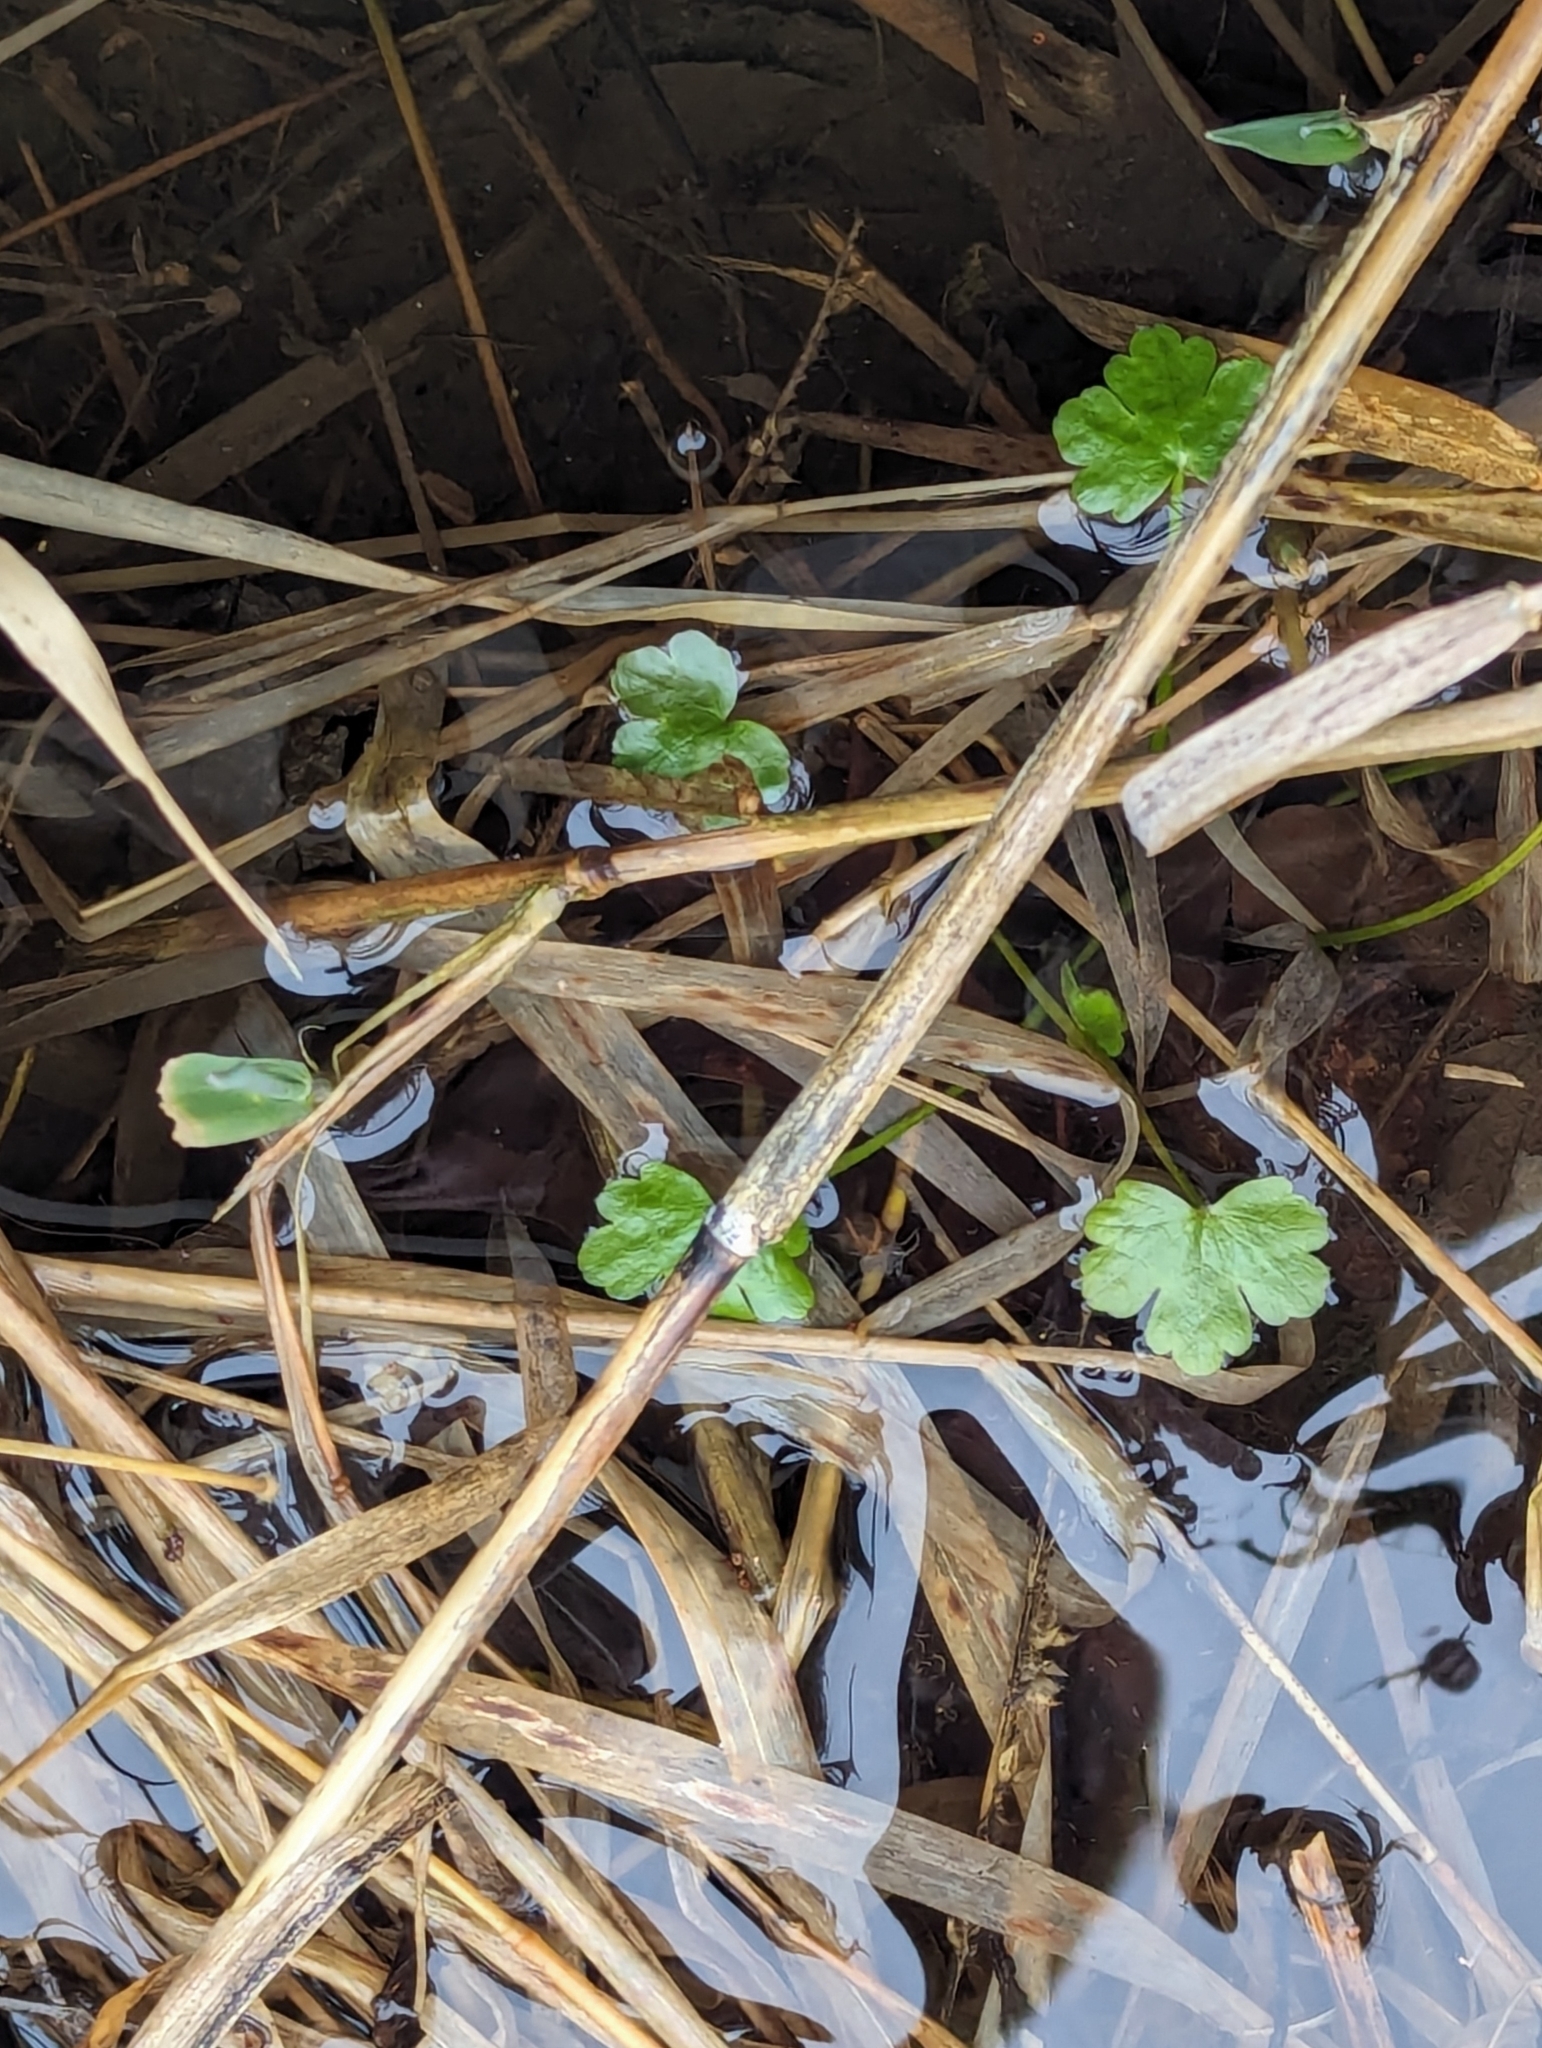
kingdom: Plantae
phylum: Tracheophyta
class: Magnoliopsida
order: Ranunculales
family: Ranunculaceae
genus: Ranunculus
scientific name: Ranunculus sceleratus
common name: Celery-leaved buttercup
